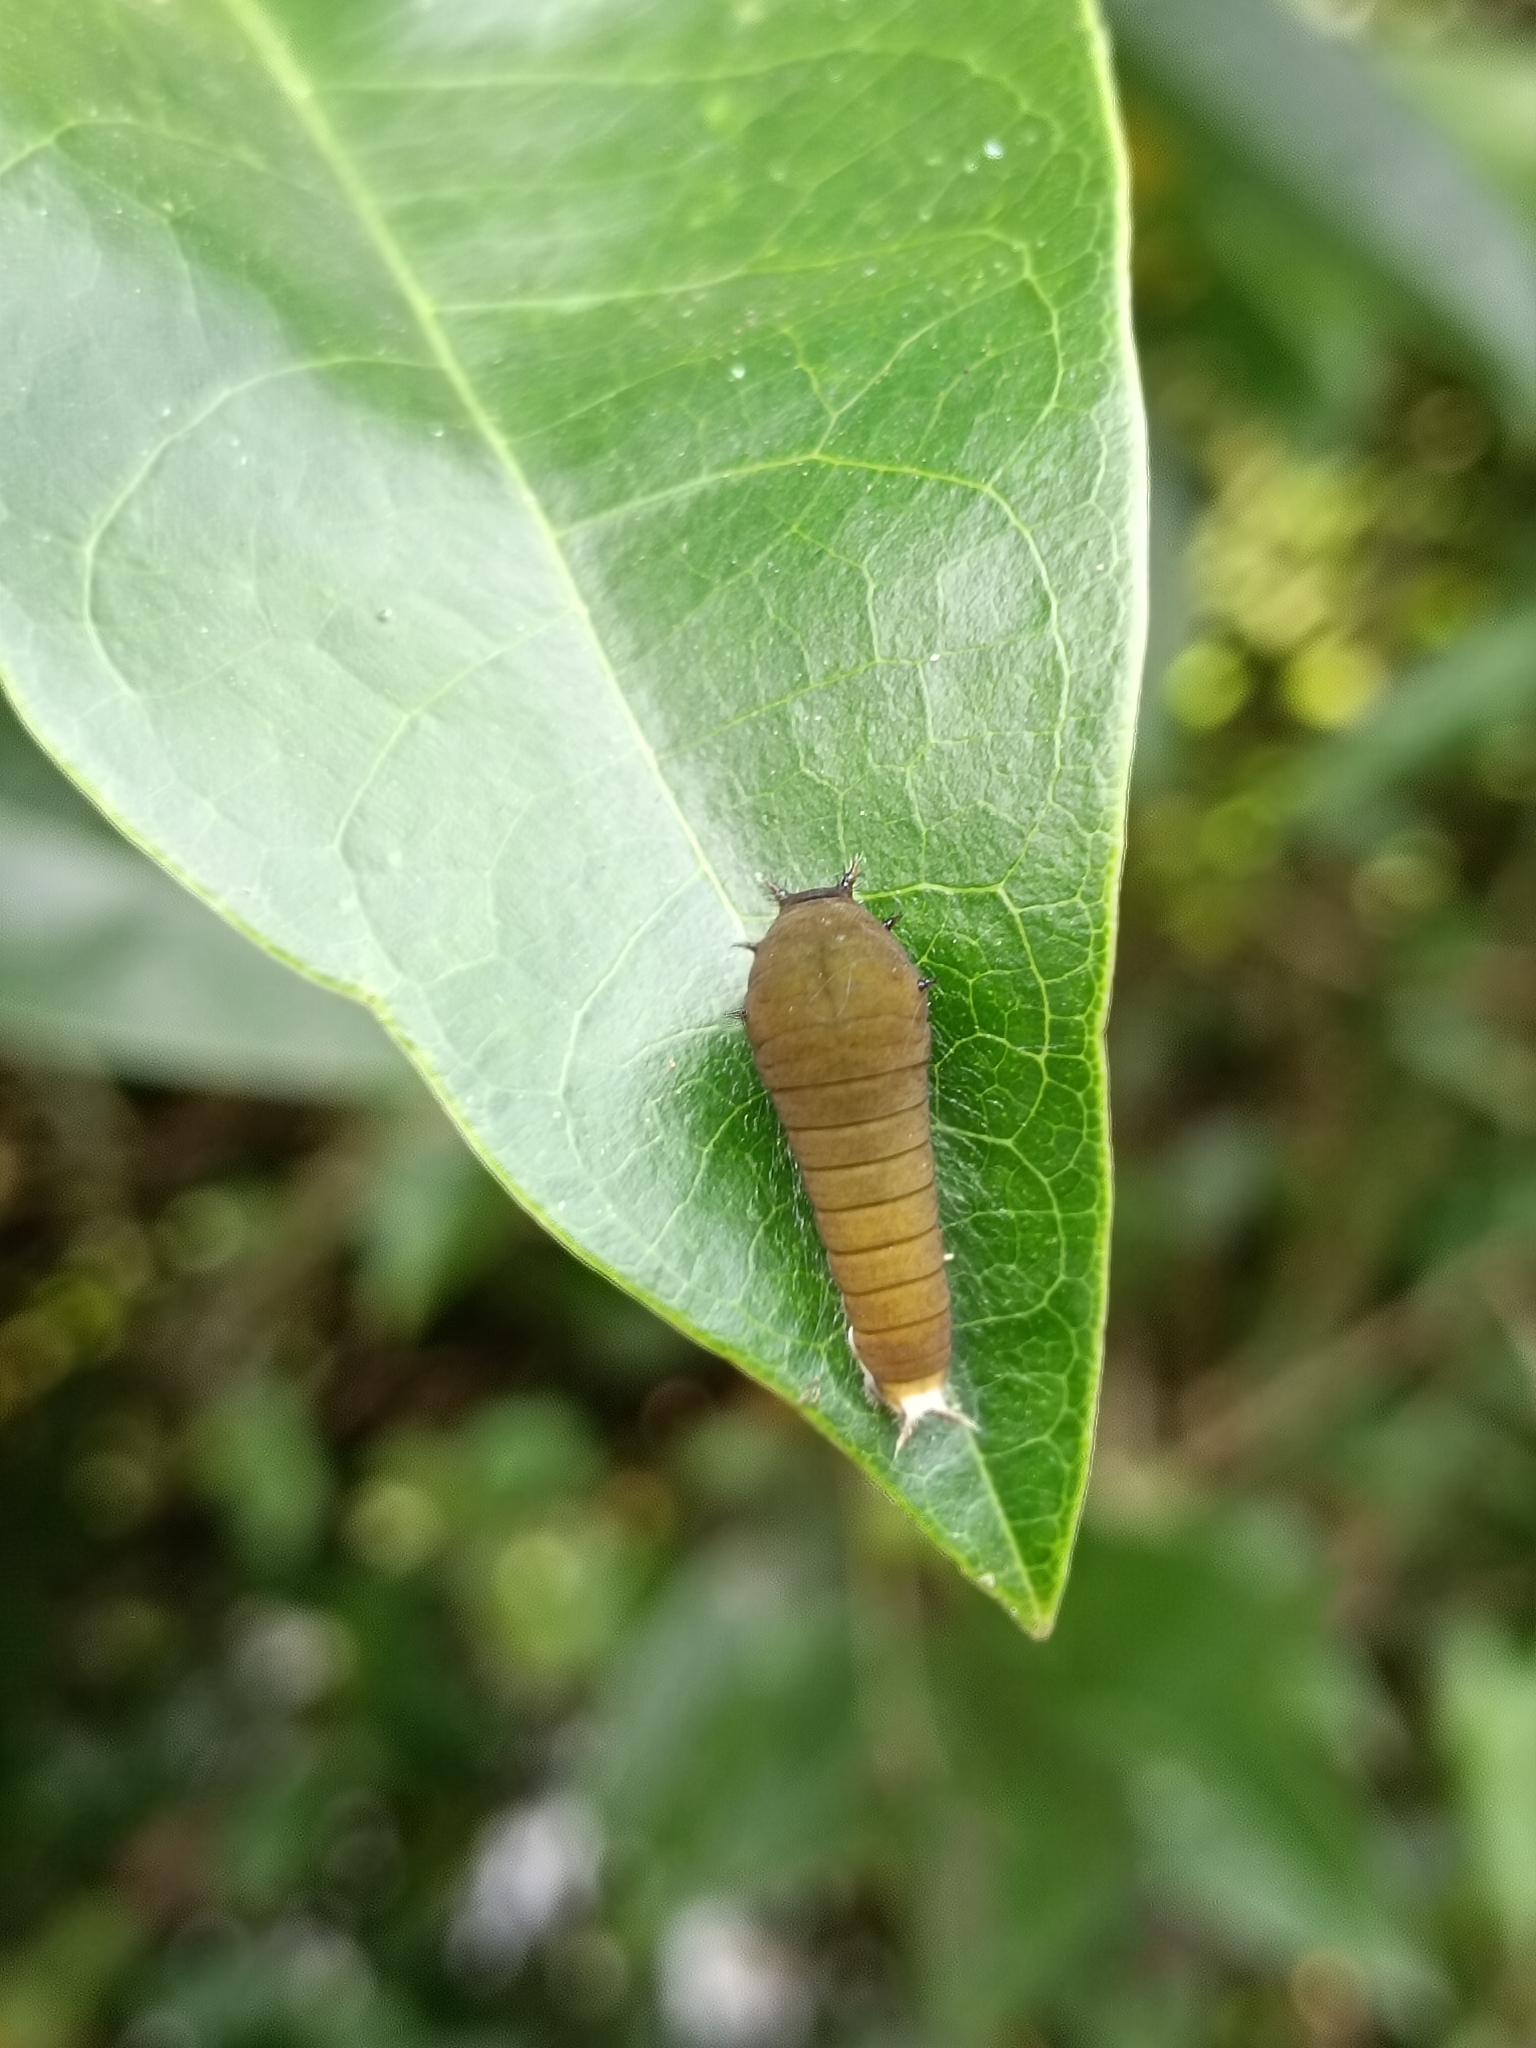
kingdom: Animalia
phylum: Arthropoda
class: Insecta
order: Lepidoptera
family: Papilionidae
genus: Graphium
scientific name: Graphium doson
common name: Common jay
